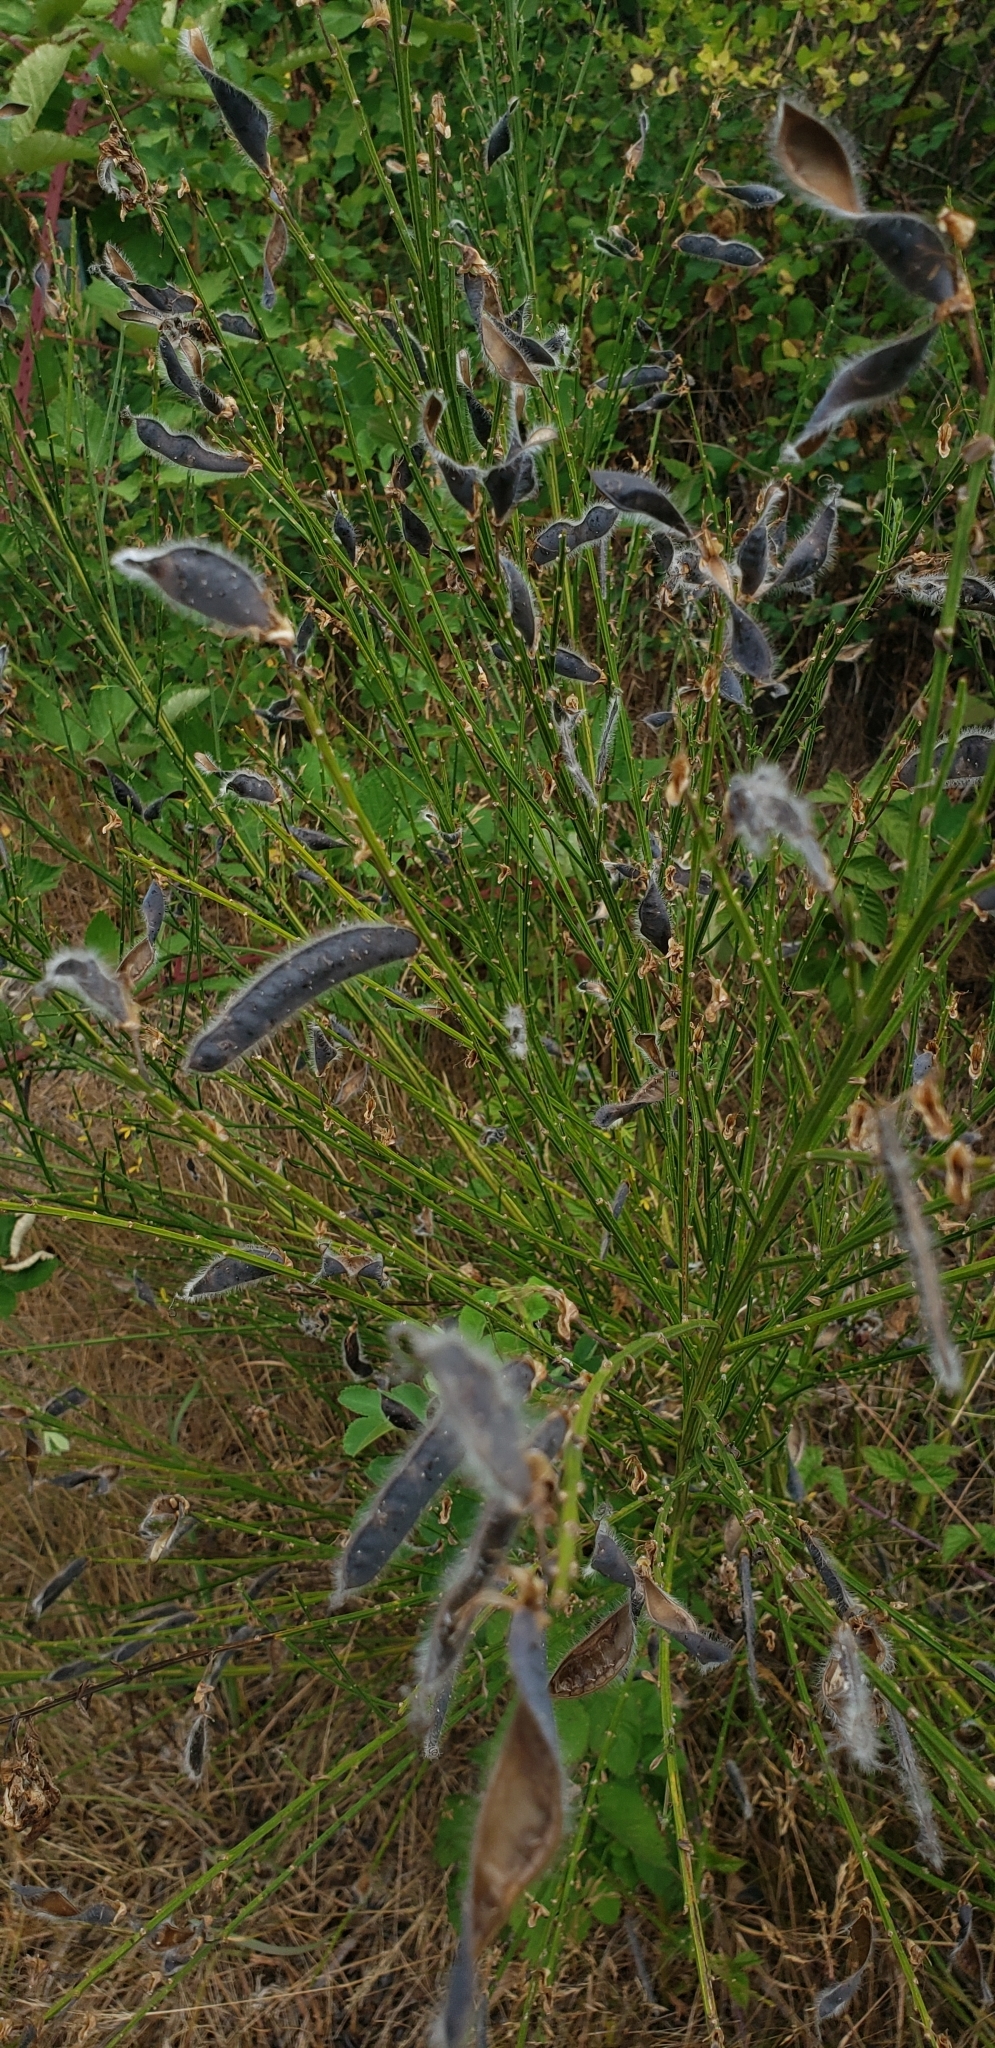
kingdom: Plantae
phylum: Tracheophyta
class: Magnoliopsida
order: Fabales
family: Fabaceae
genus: Cytisus
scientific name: Cytisus scoparius
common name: Scotch broom
